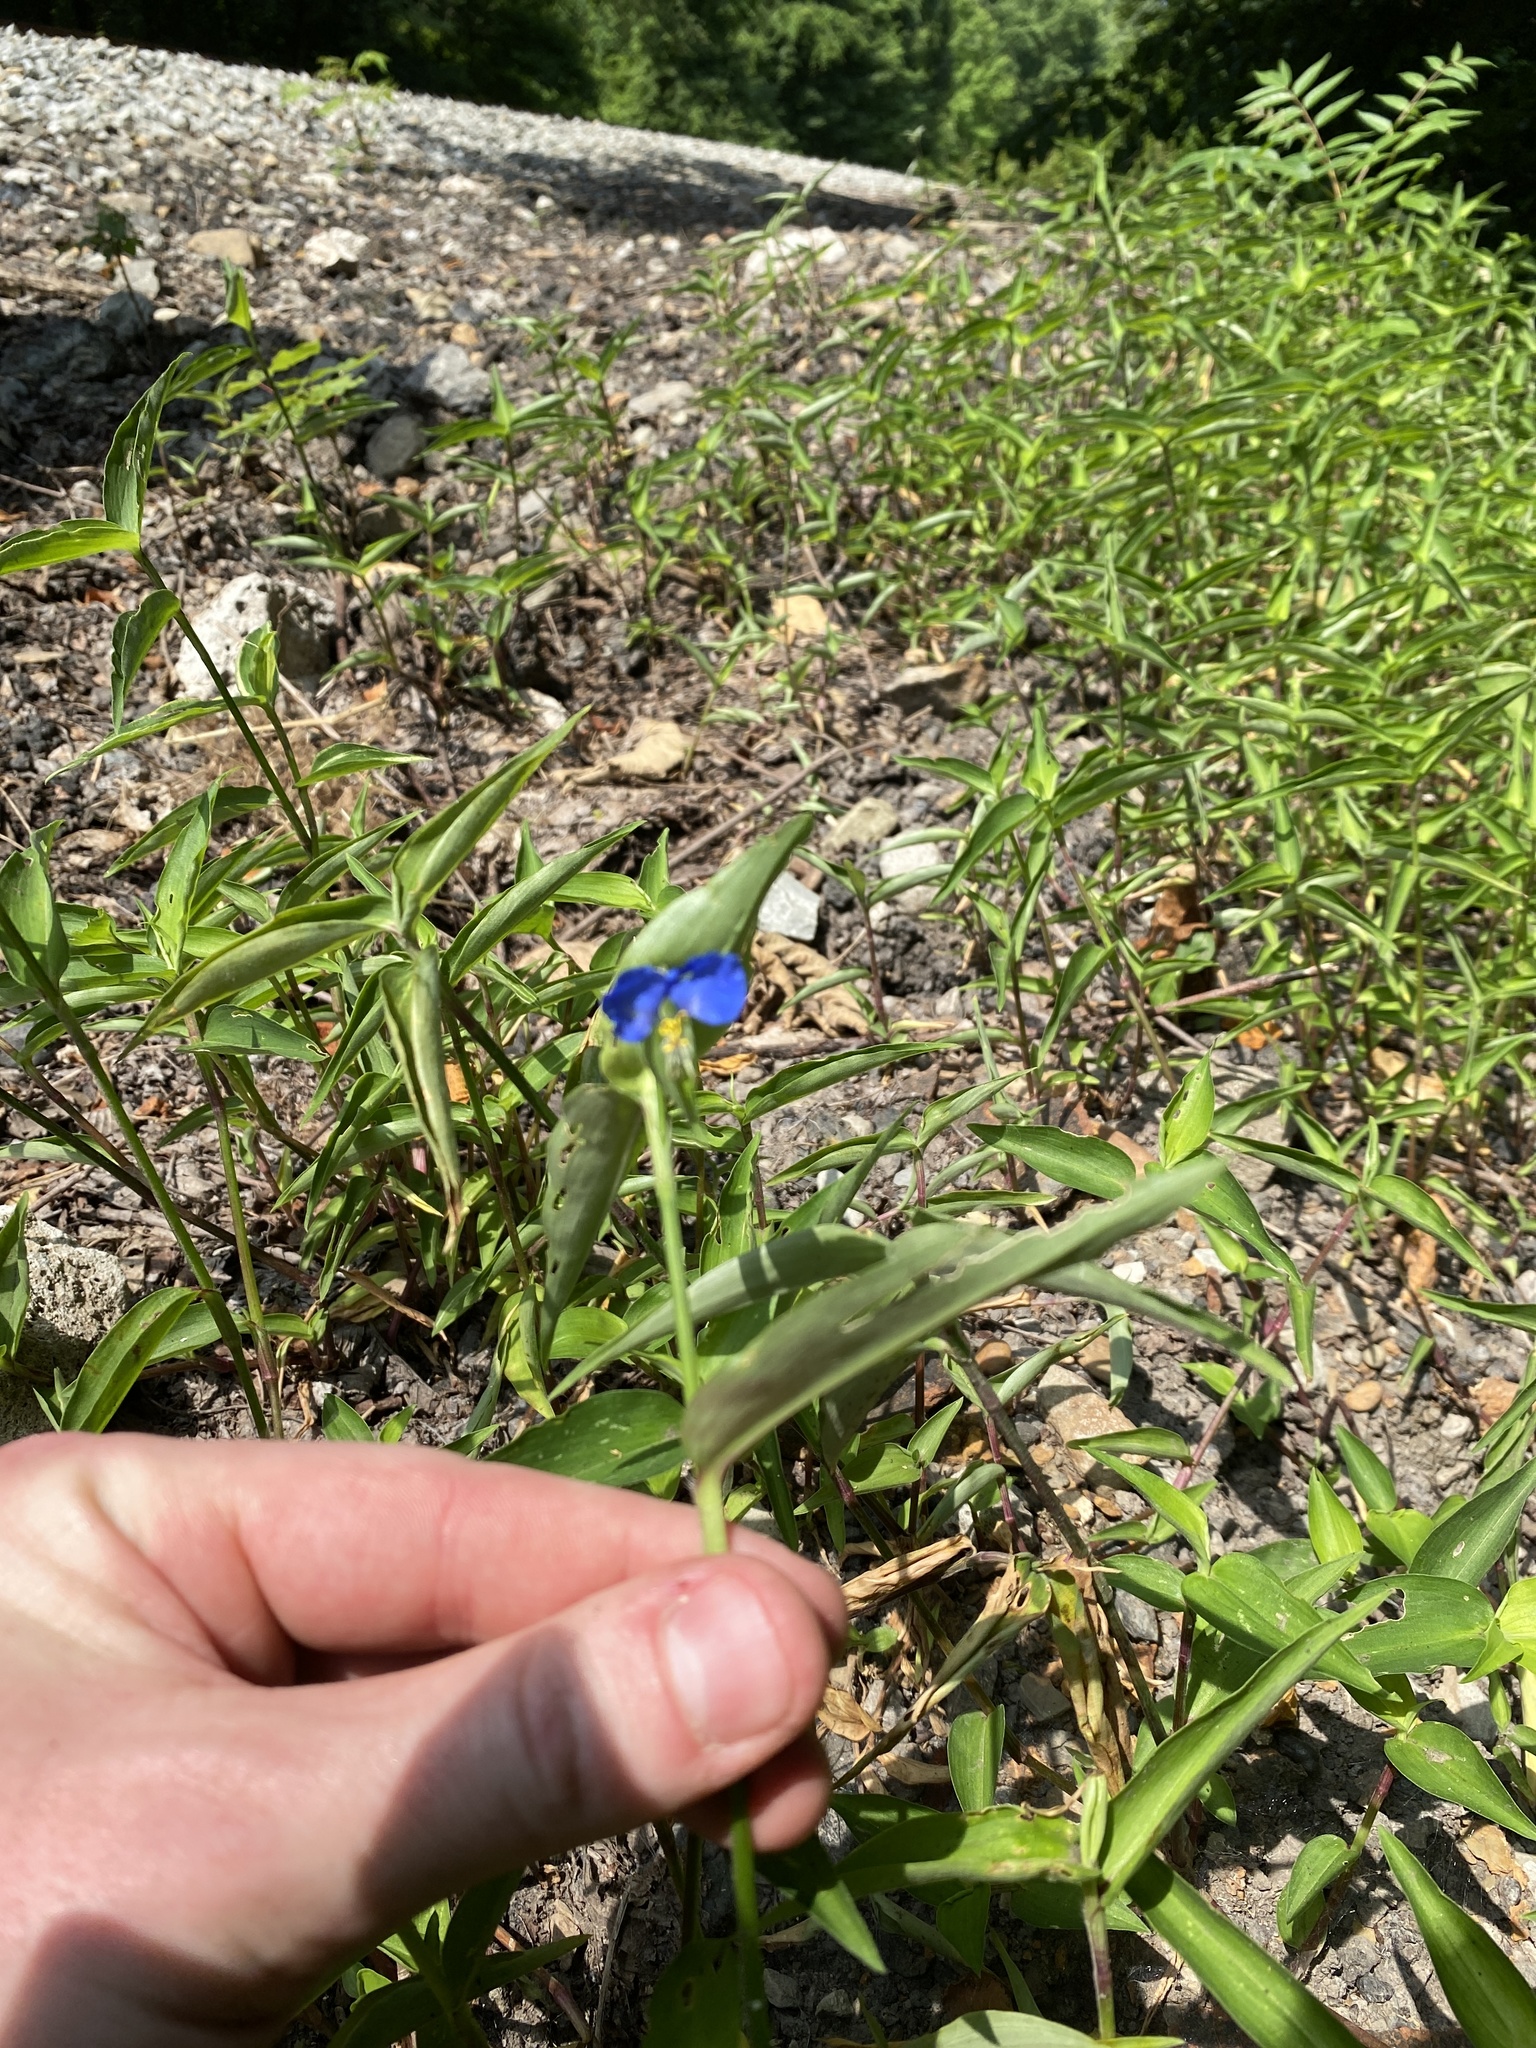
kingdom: Plantae
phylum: Tracheophyta
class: Liliopsida
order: Commelinales
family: Commelinaceae
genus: Commelina
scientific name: Commelina communis
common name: Asiatic dayflower
